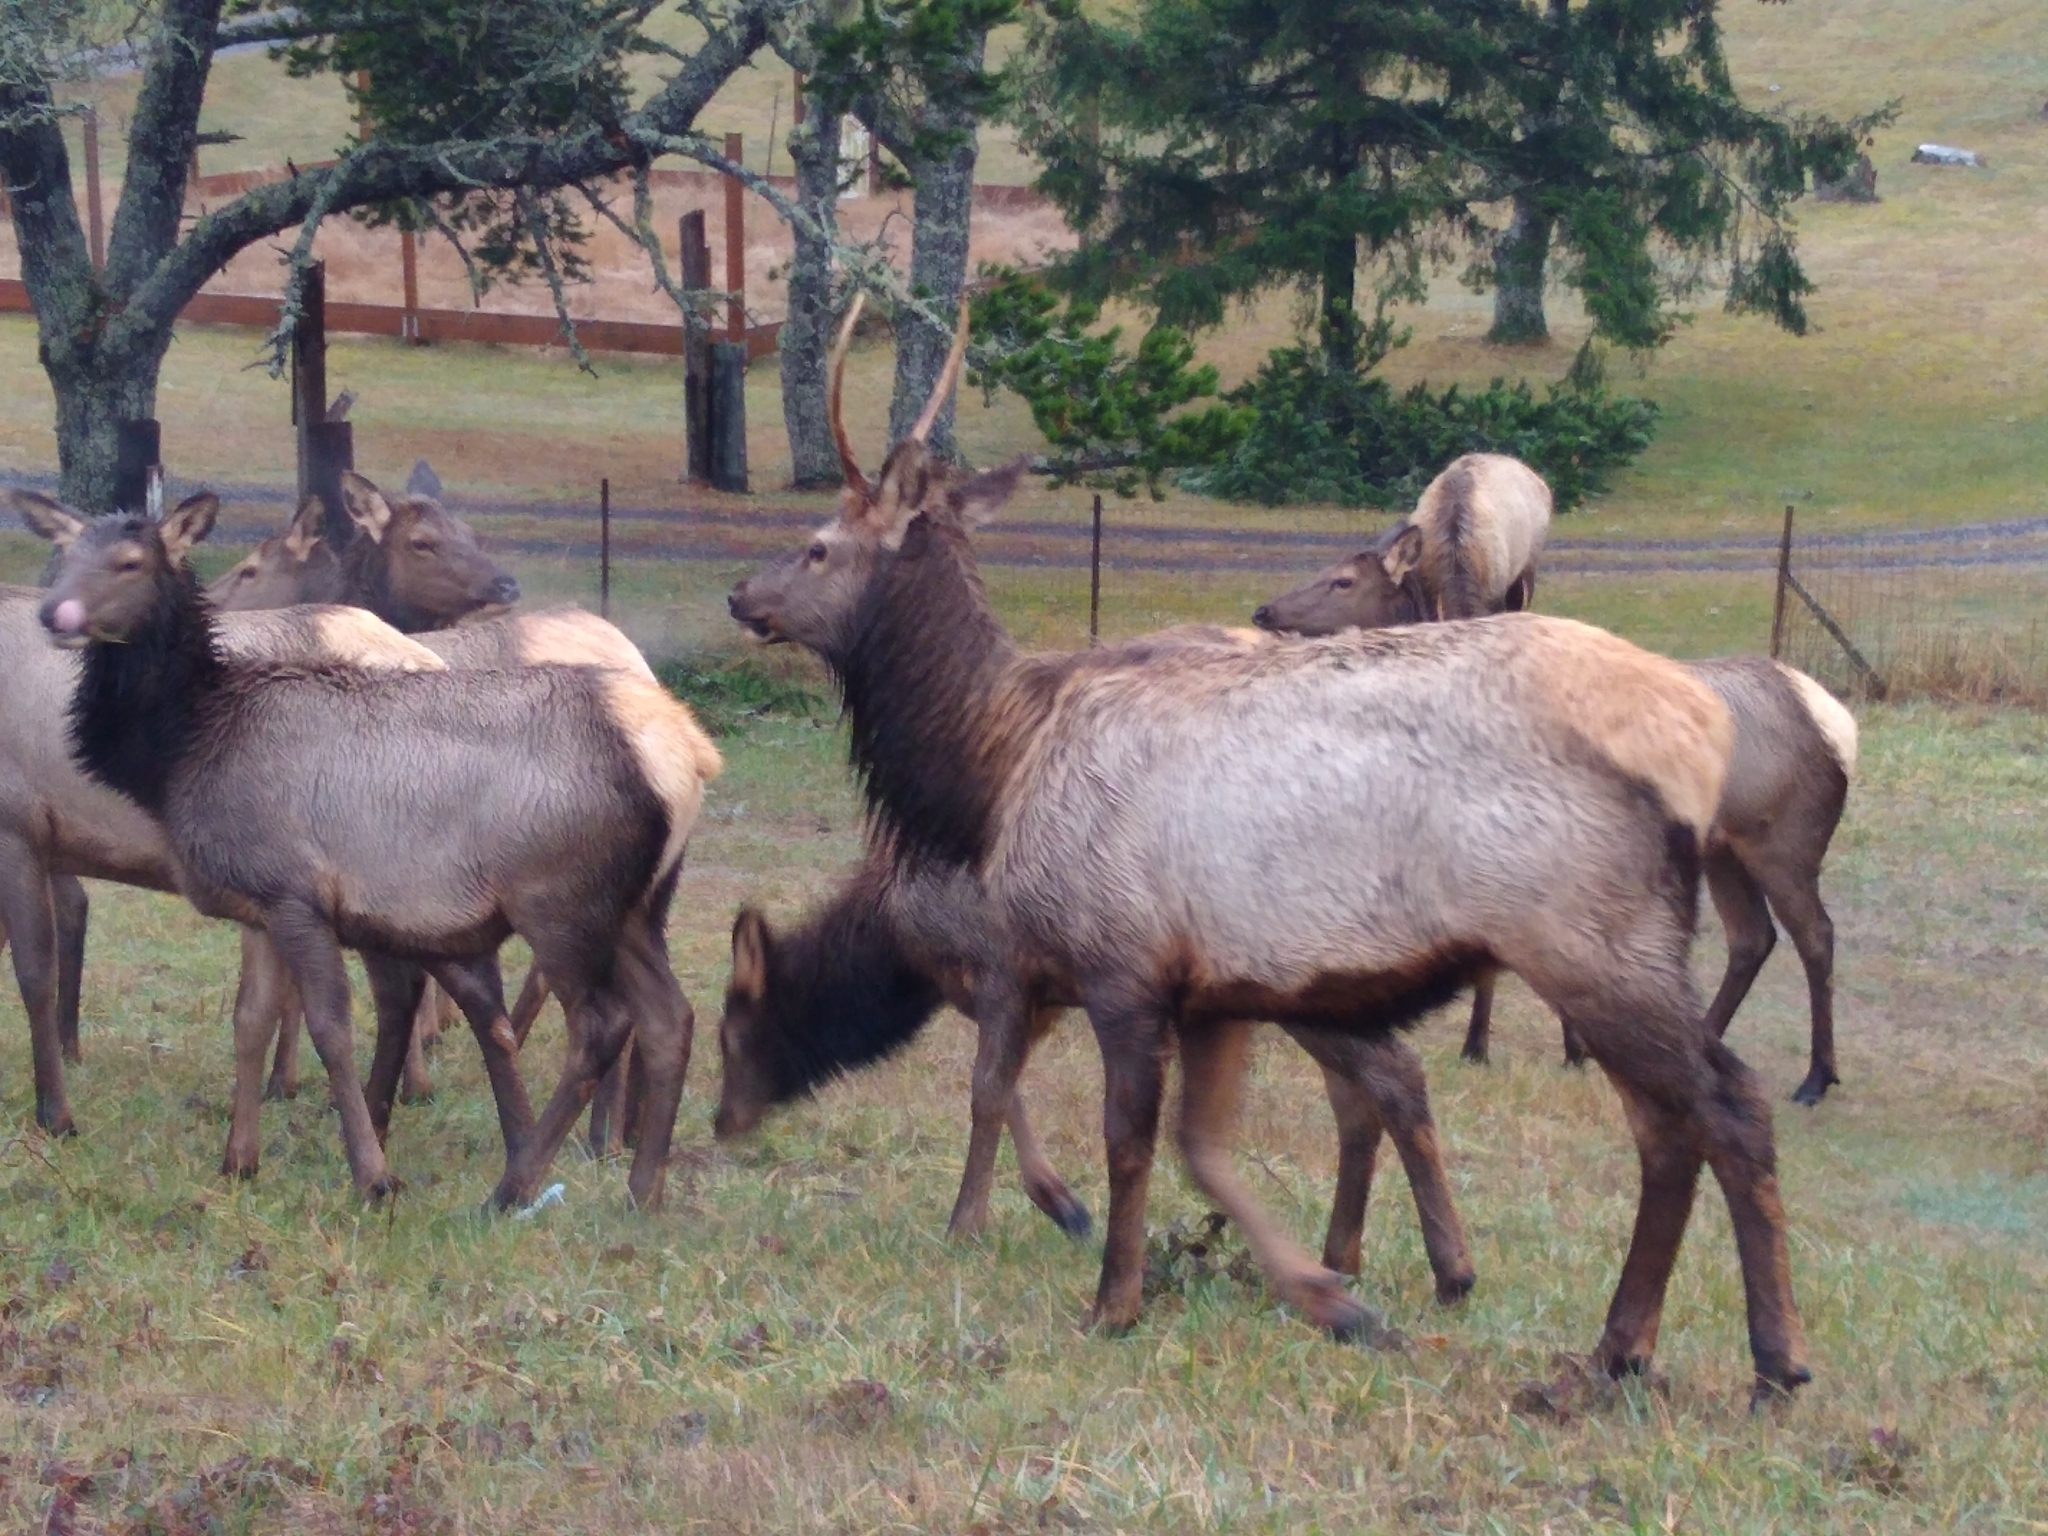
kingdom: Animalia
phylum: Chordata
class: Mammalia
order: Artiodactyla
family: Cervidae
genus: Cervus
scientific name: Cervus elaphus
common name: Red deer
